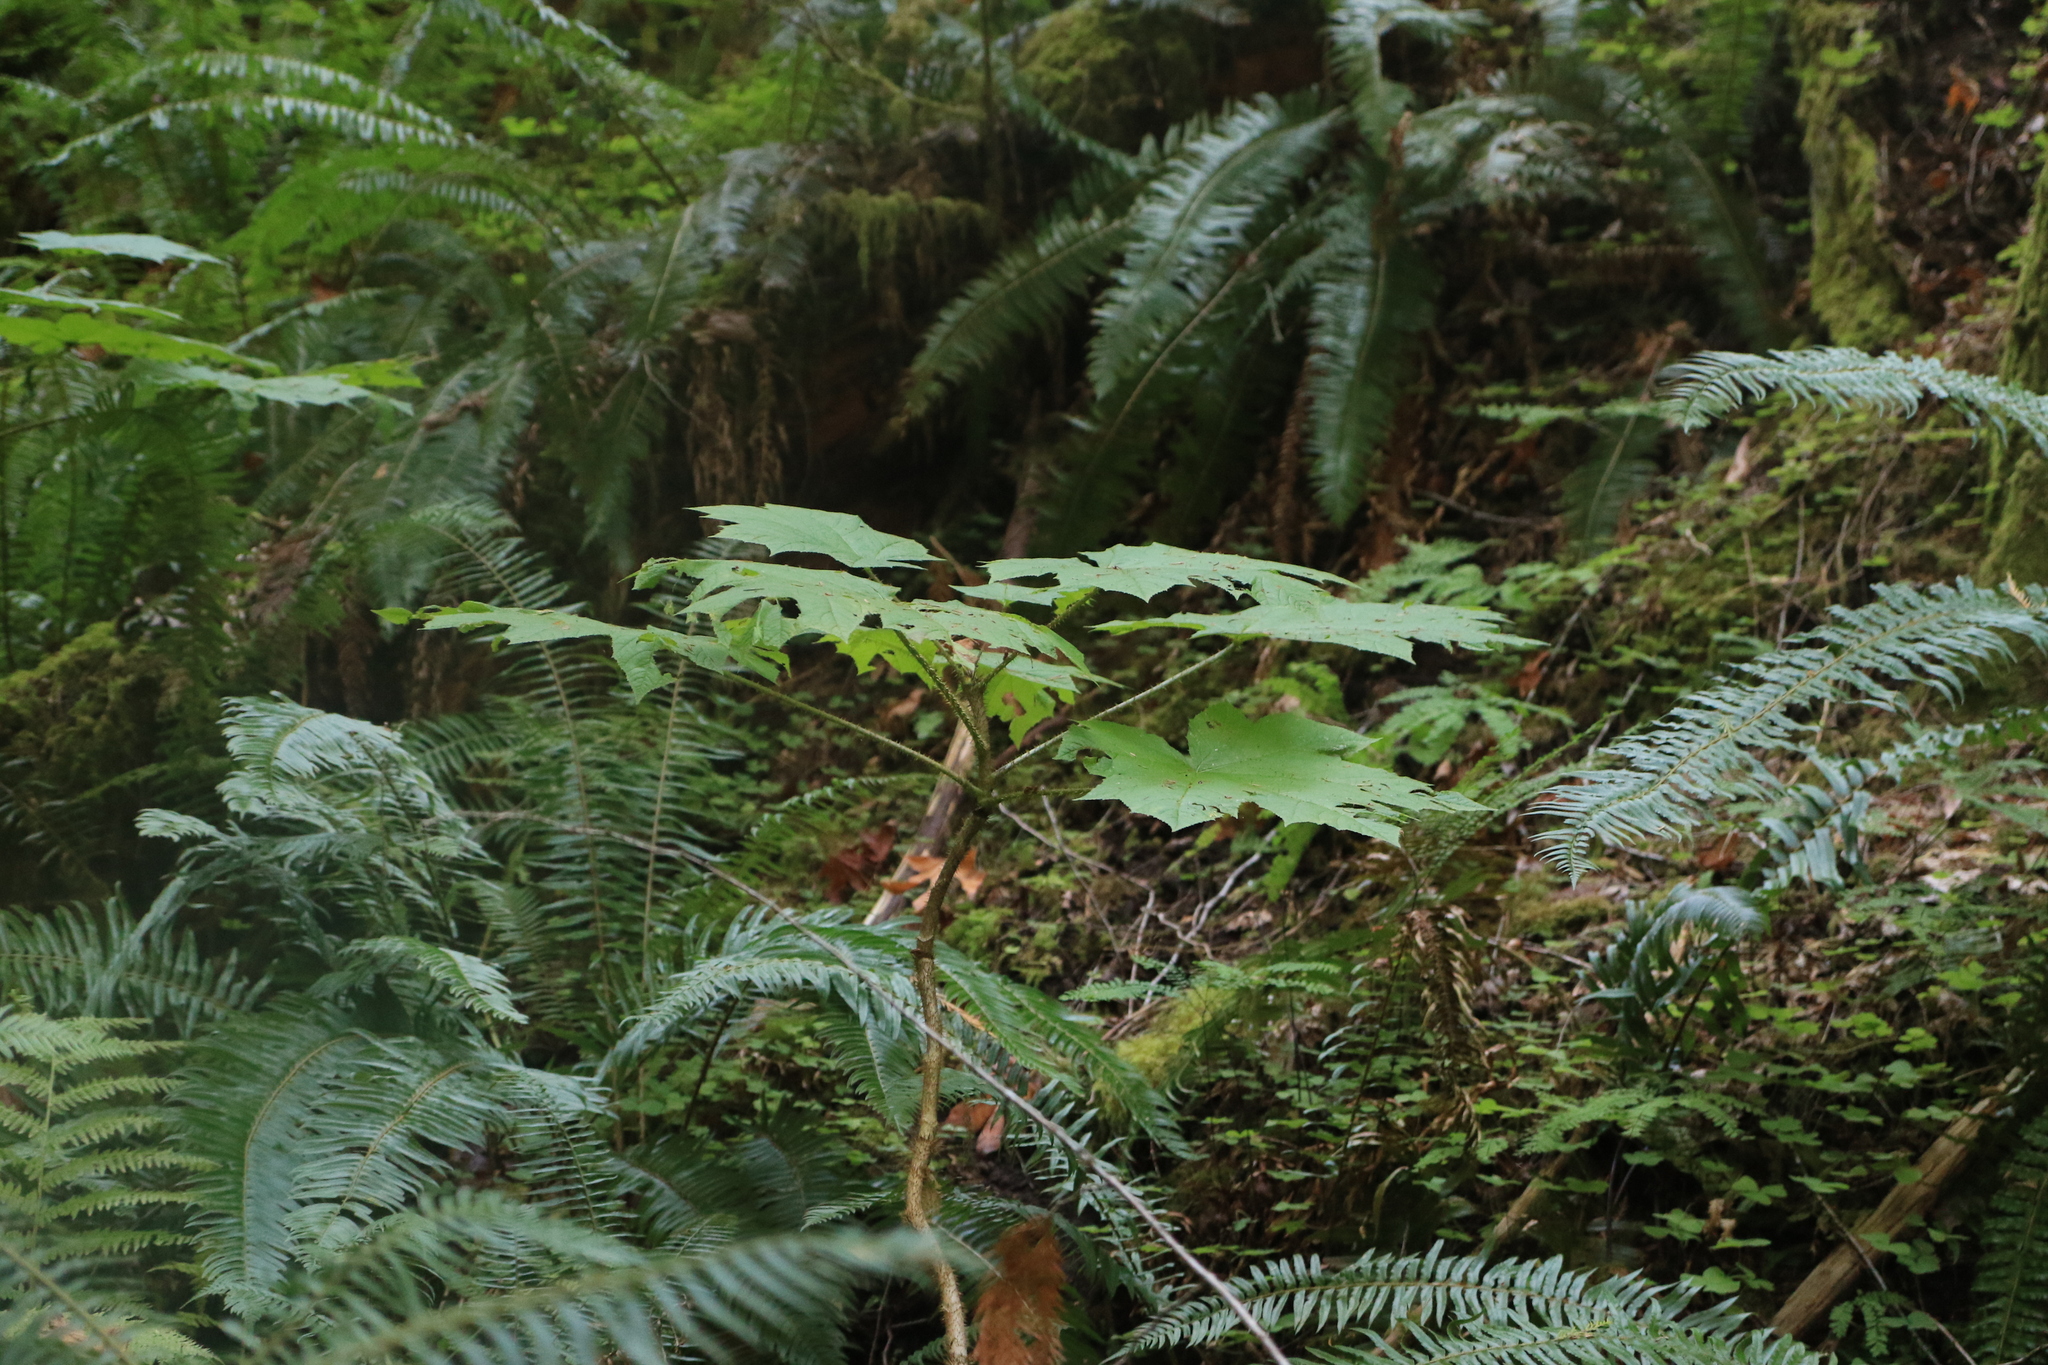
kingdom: Plantae
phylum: Tracheophyta
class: Magnoliopsida
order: Apiales
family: Araliaceae
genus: Oplopanax
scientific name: Oplopanax horridus
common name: Devil's walking-stick
